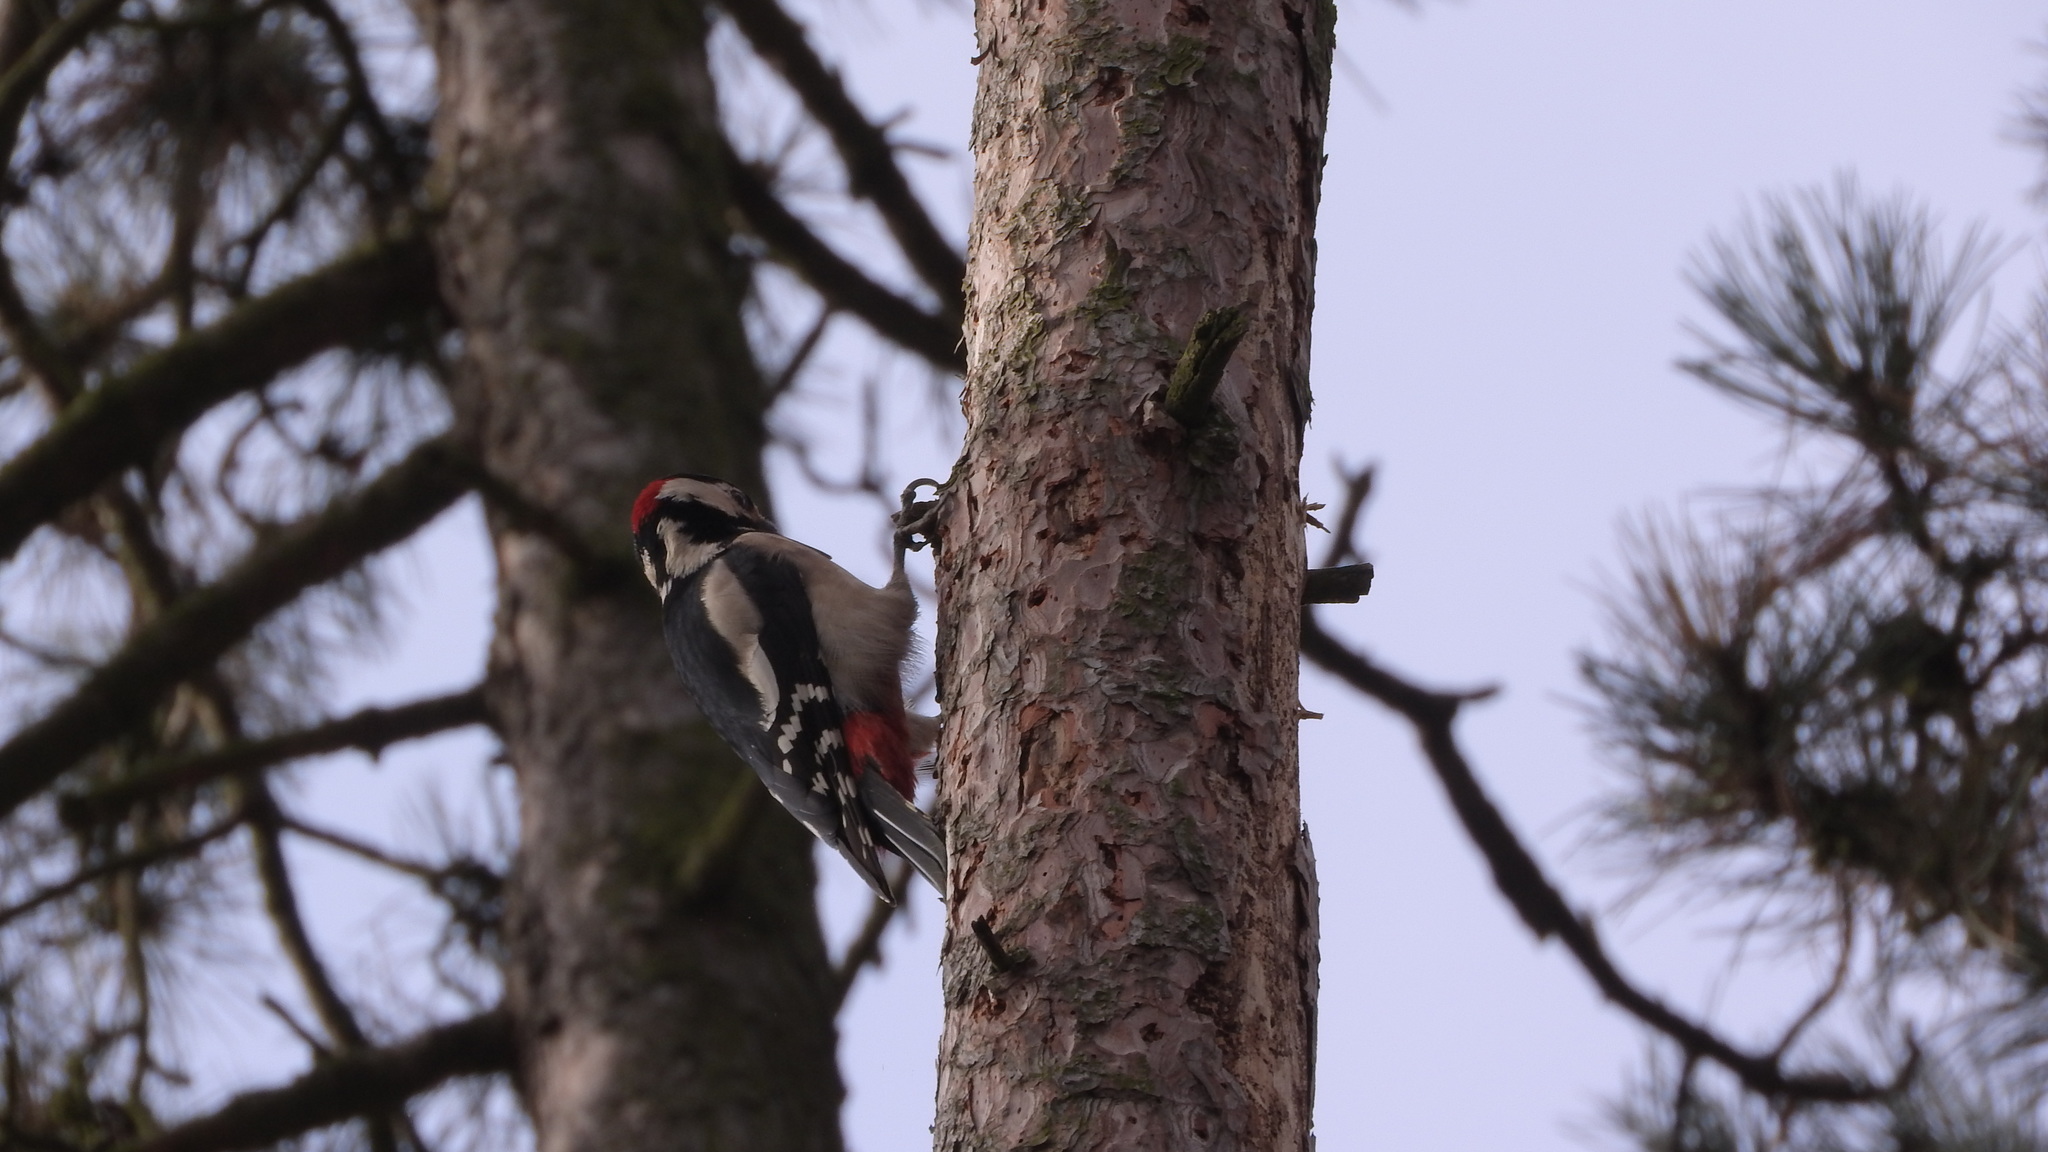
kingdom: Animalia
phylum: Chordata
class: Aves
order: Piciformes
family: Picidae
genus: Dendrocopos
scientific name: Dendrocopos major
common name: Great spotted woodpecker
